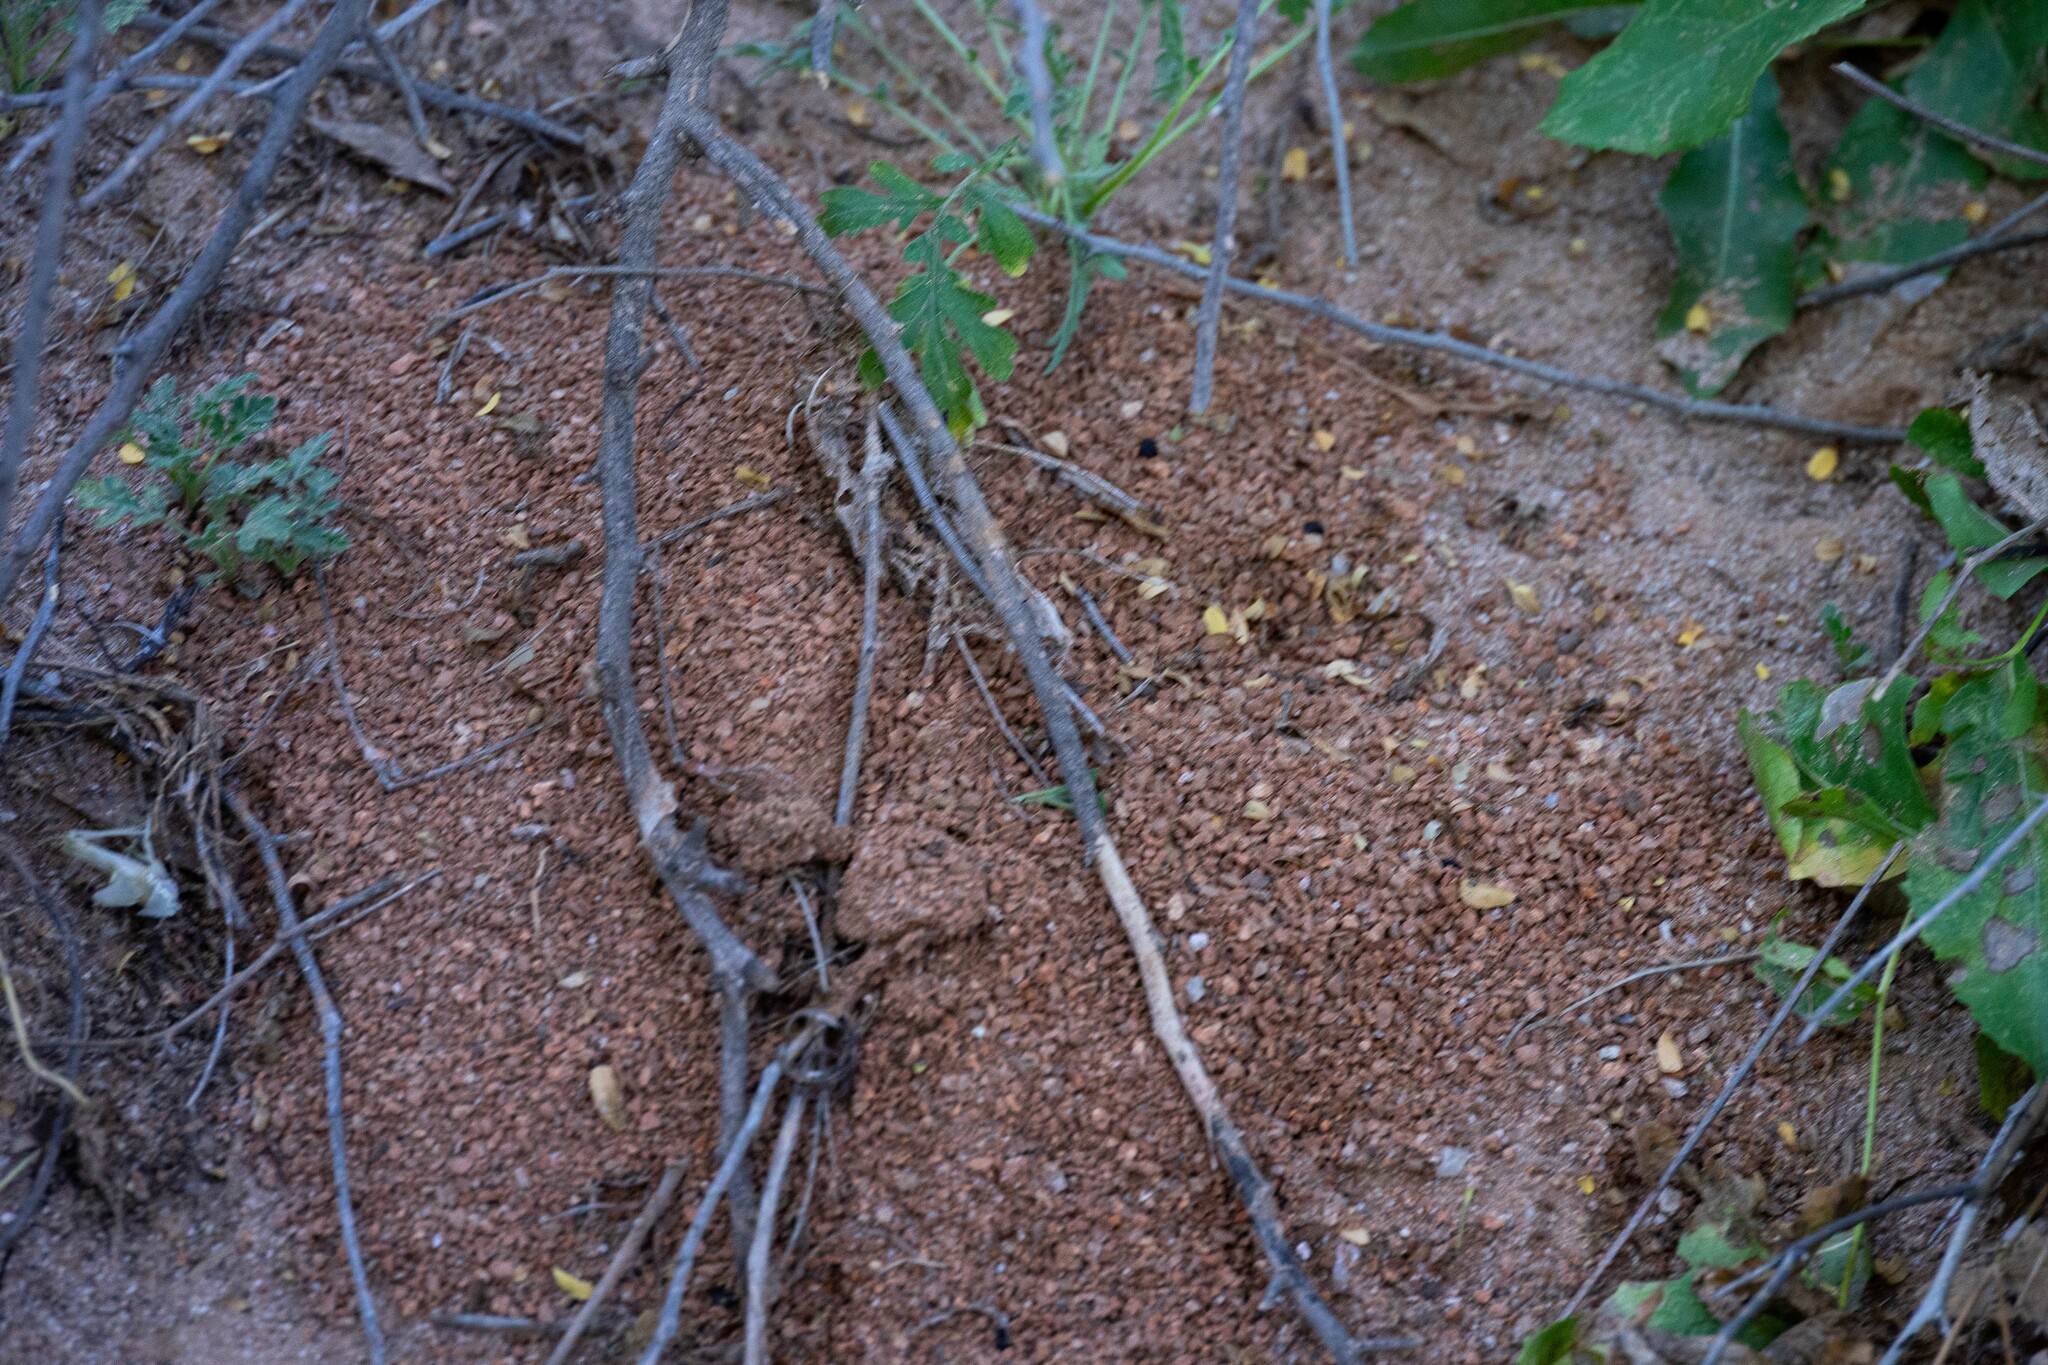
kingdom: Animalia
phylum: Arthropoda
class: Insecta
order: Hymenoptera
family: Formicidae
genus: Trachymyrmex
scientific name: Trachymyrmex desertorum
